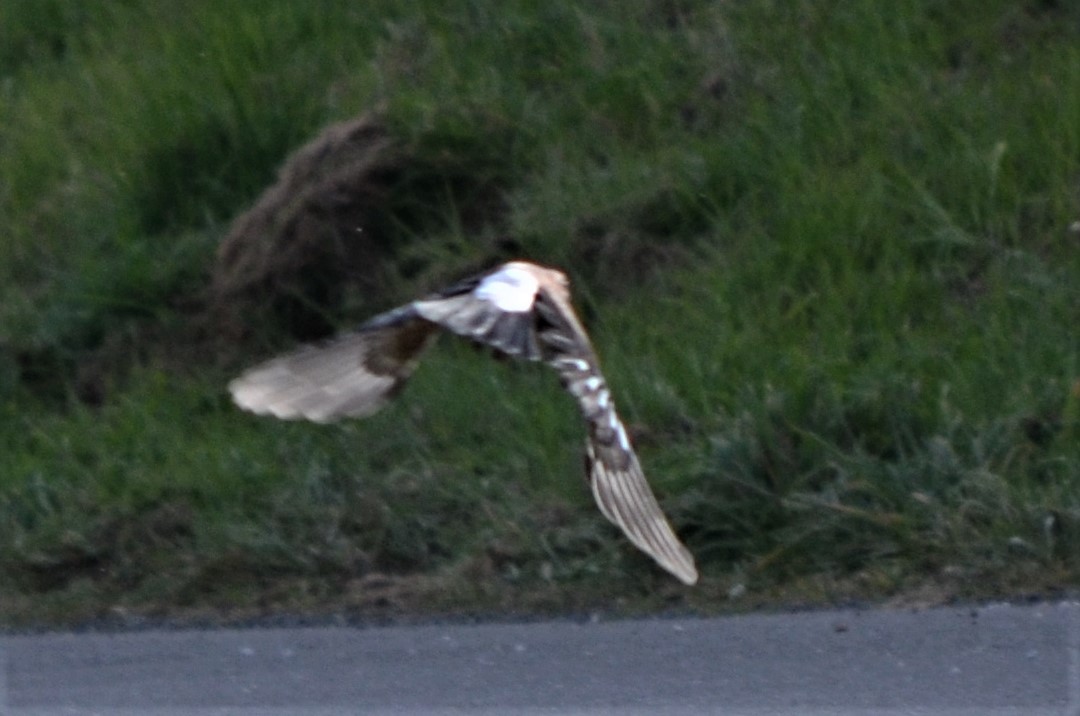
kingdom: Animalia
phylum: Chordata
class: Aves
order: Passeriformes
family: Corvidae
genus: Garrulus
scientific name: Garrulus glandarius
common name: Eurasian jay
